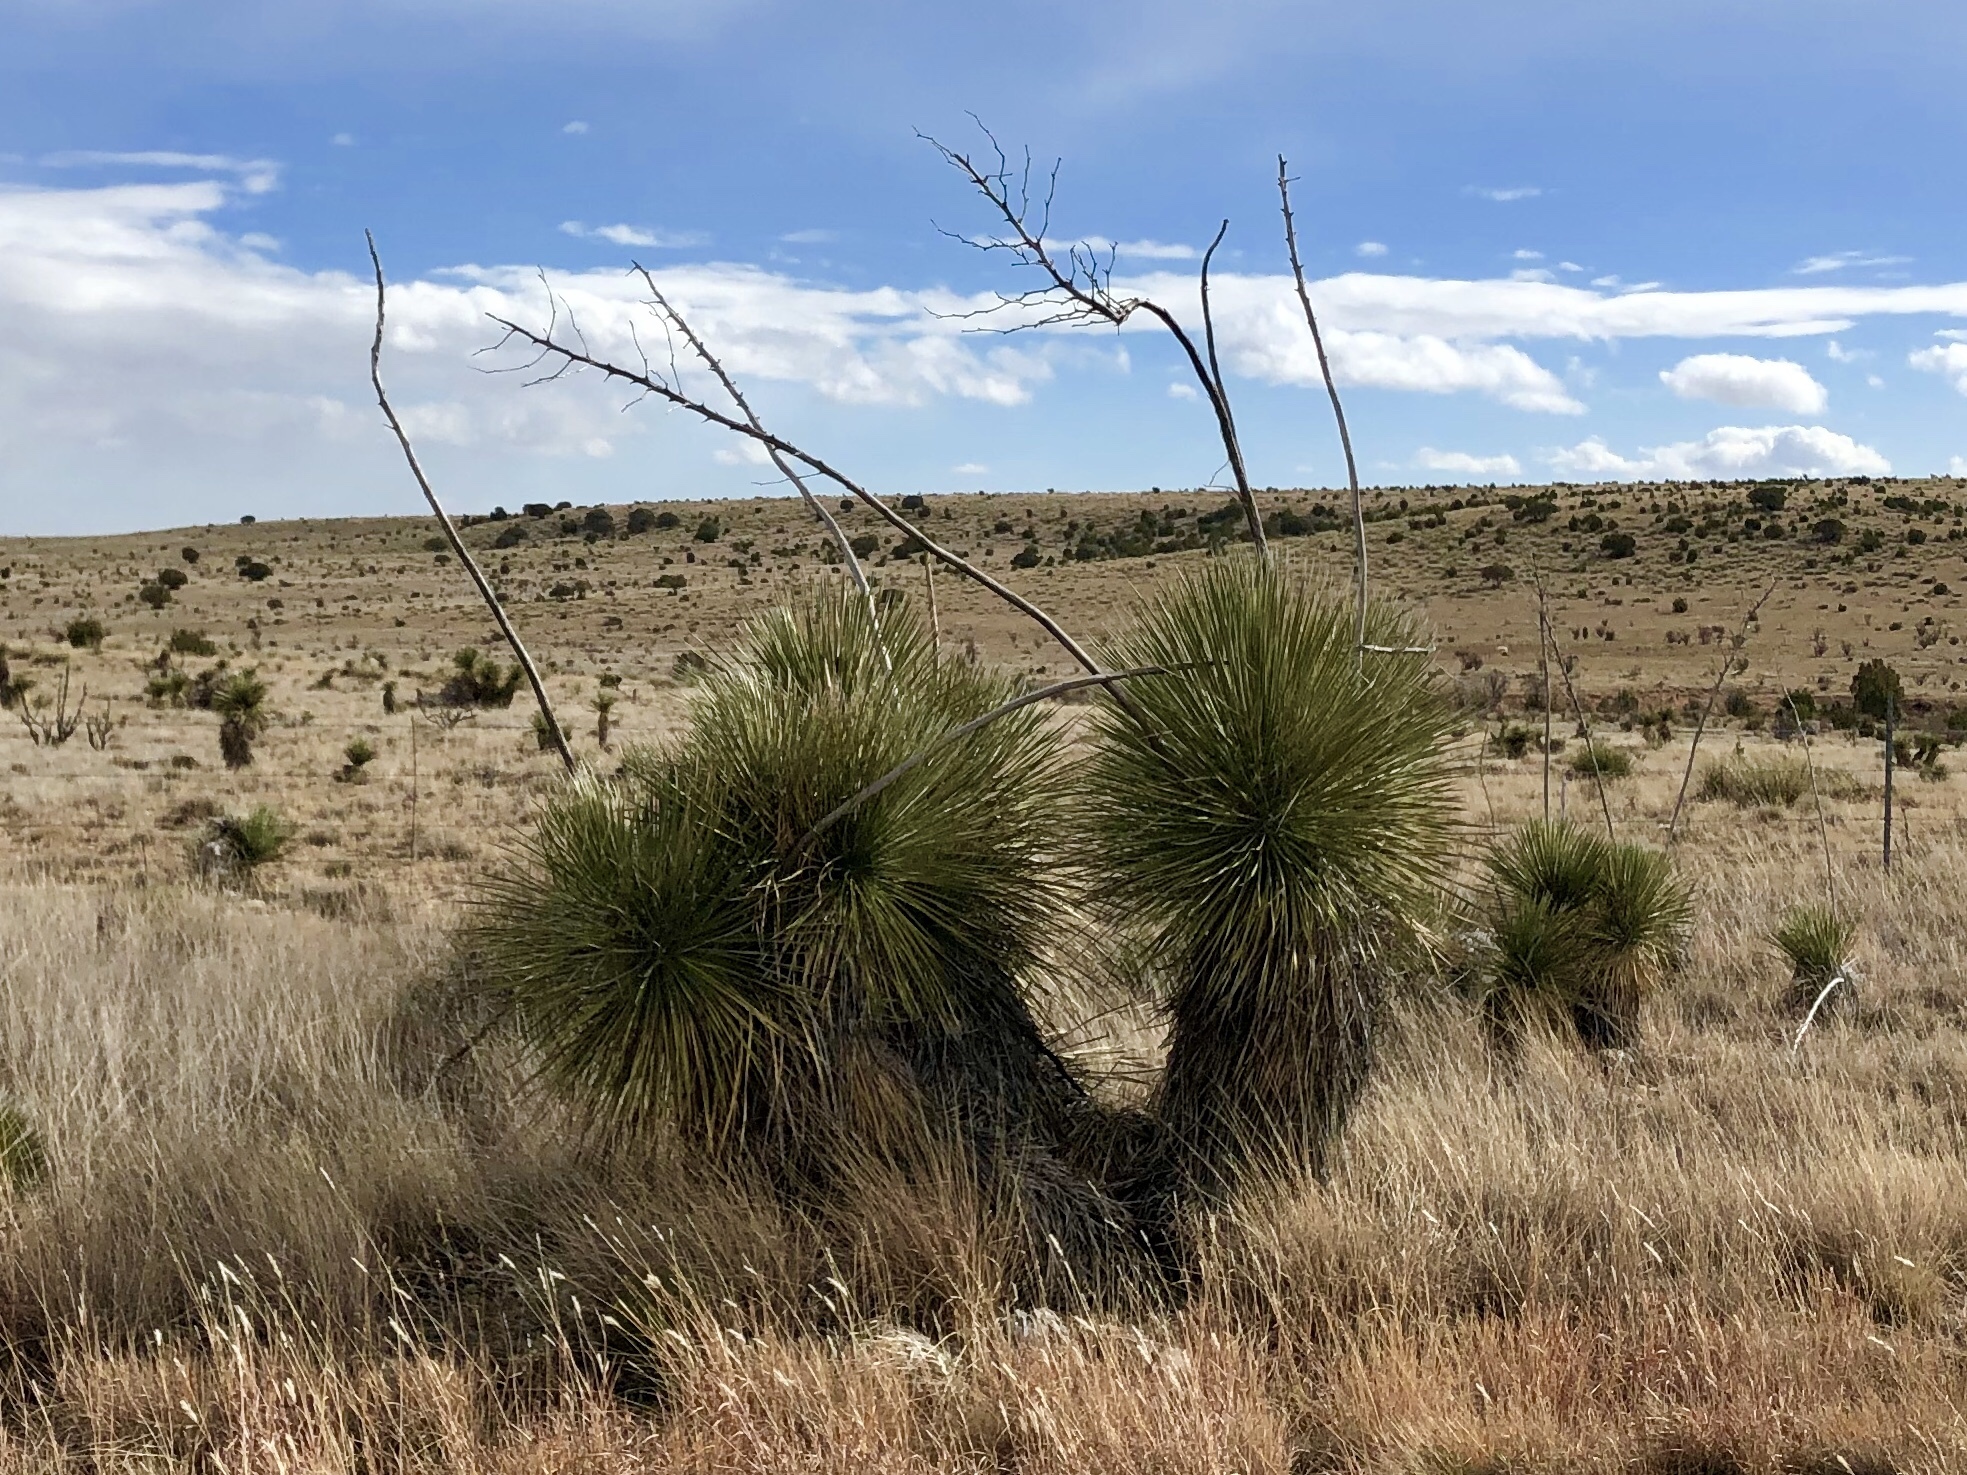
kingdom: Plantae
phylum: Tracheophyta
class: Liliopsida
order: Asparagales
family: Asparagaceae
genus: Yucca
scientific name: Yucca elata
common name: Palmella
